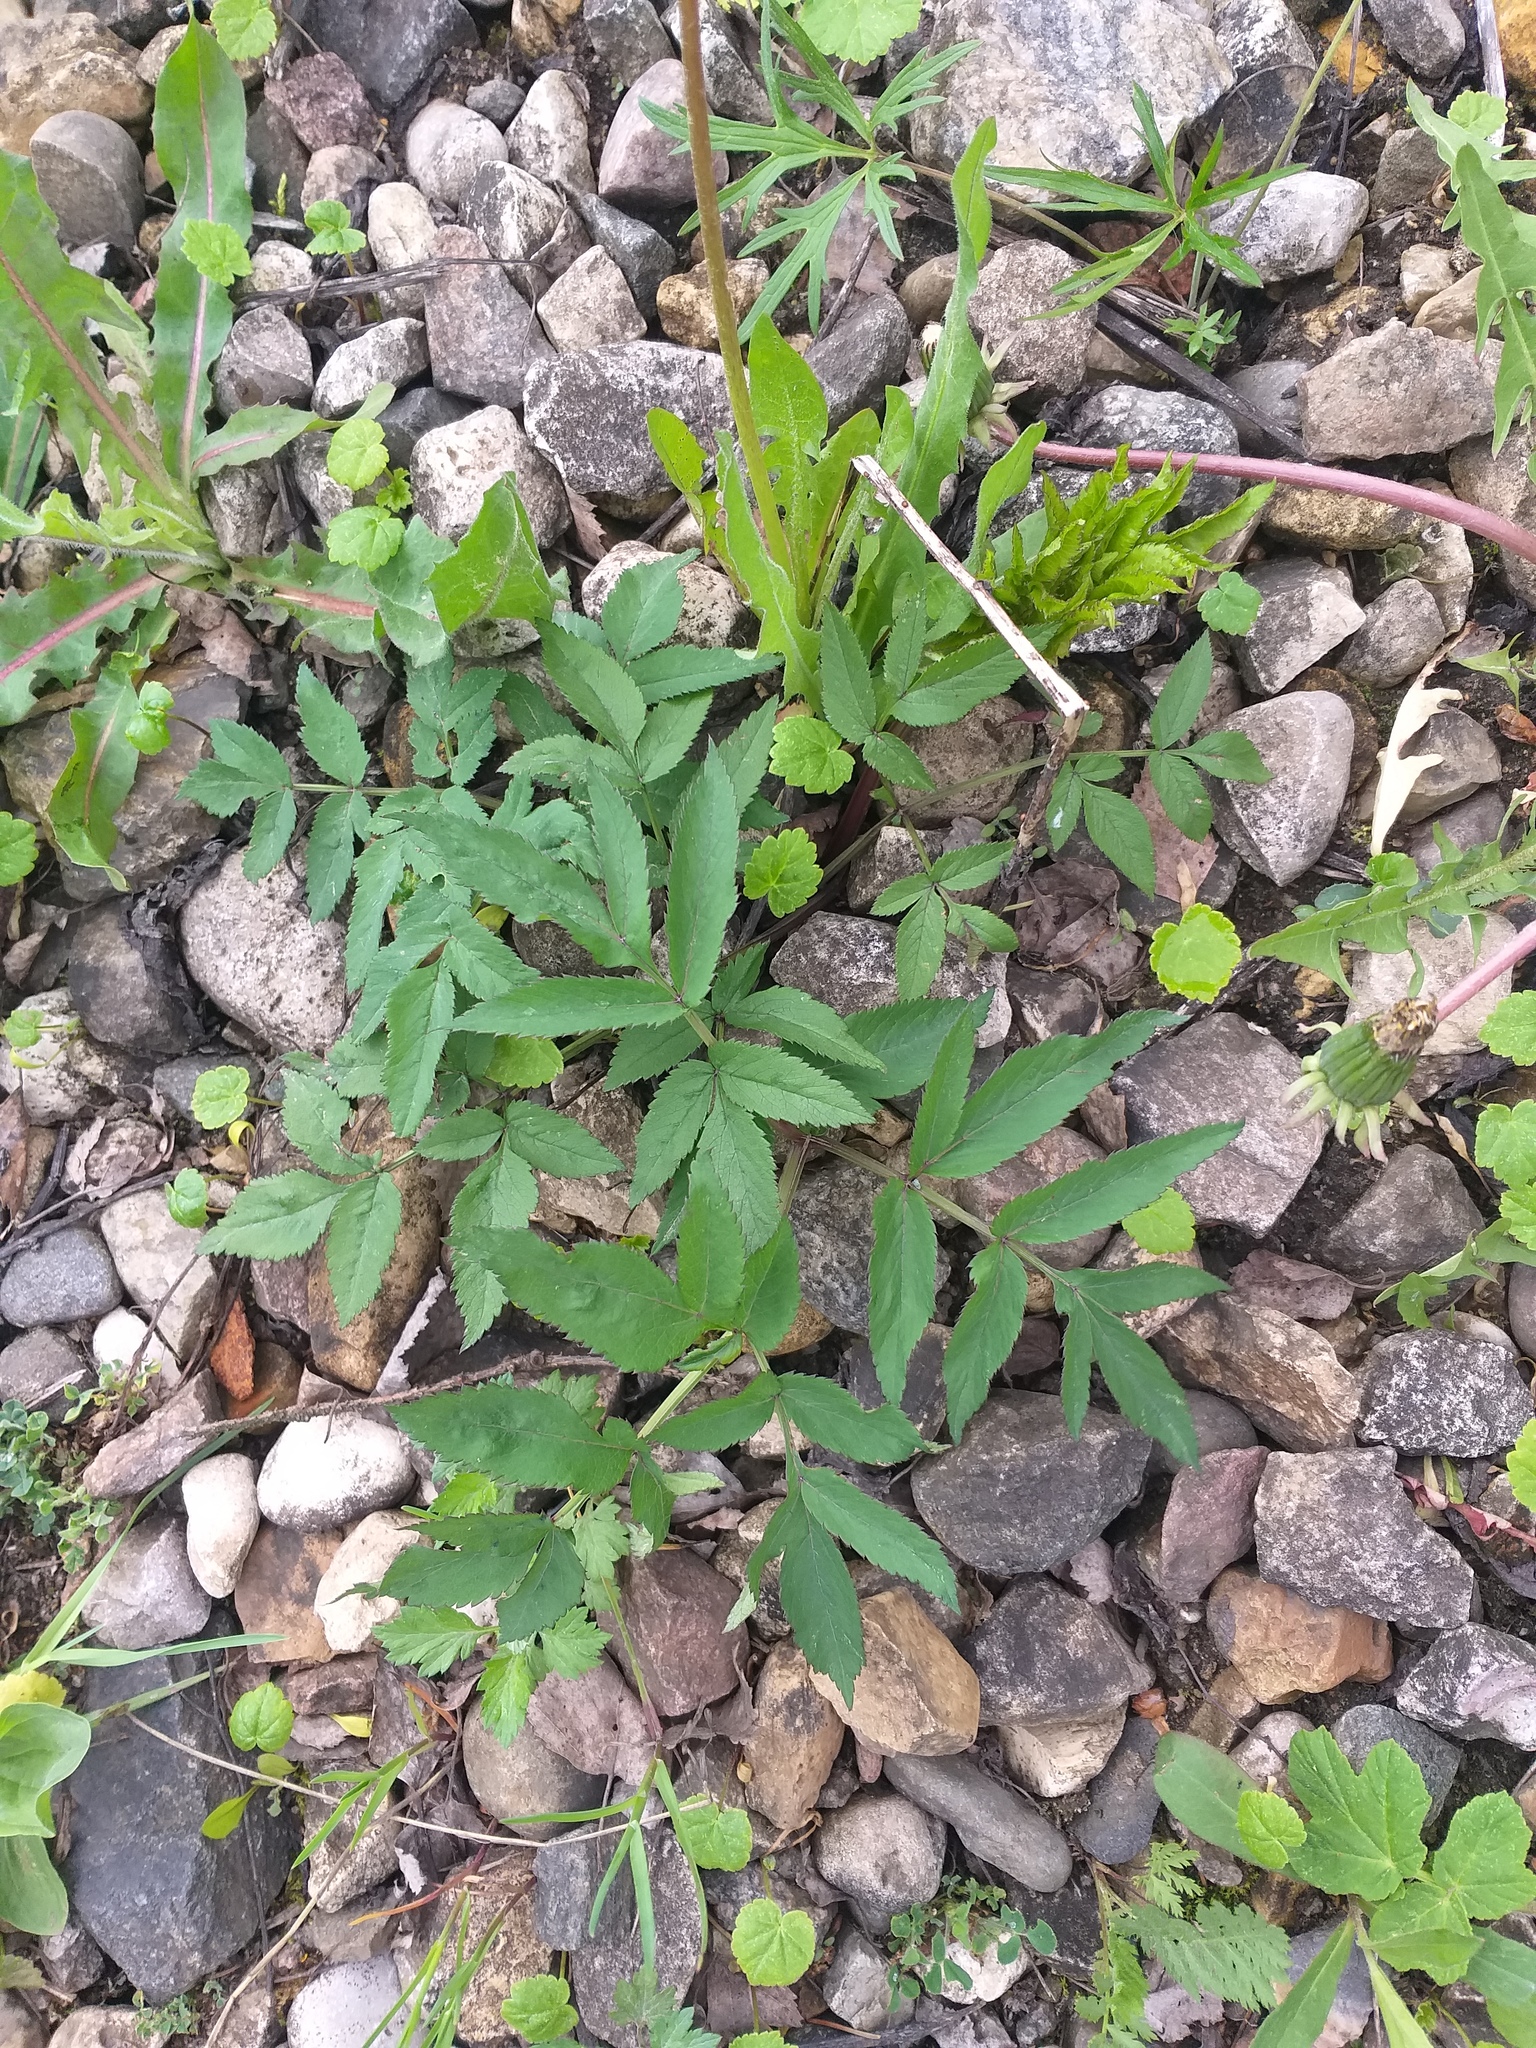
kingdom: Plantae
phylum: Tracheophyta
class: Magnoliopsida
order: Apiales
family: Apiaceae
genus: Angelica
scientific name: Angelica sylvestris
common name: Wild angelica
